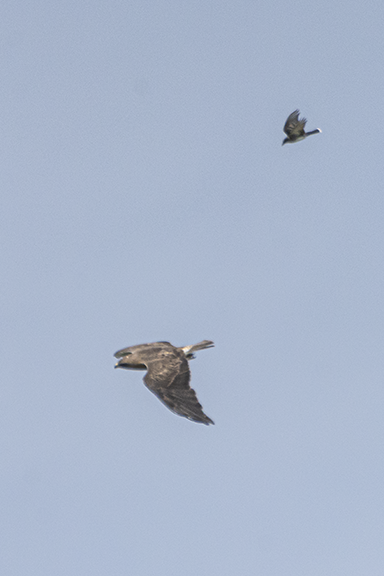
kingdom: Animalia
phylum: Chordata
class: Aves
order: Accipitriformes
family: Accipitridae
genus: Buteo
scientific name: Buteo swainsoni
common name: Swainson's hawk
